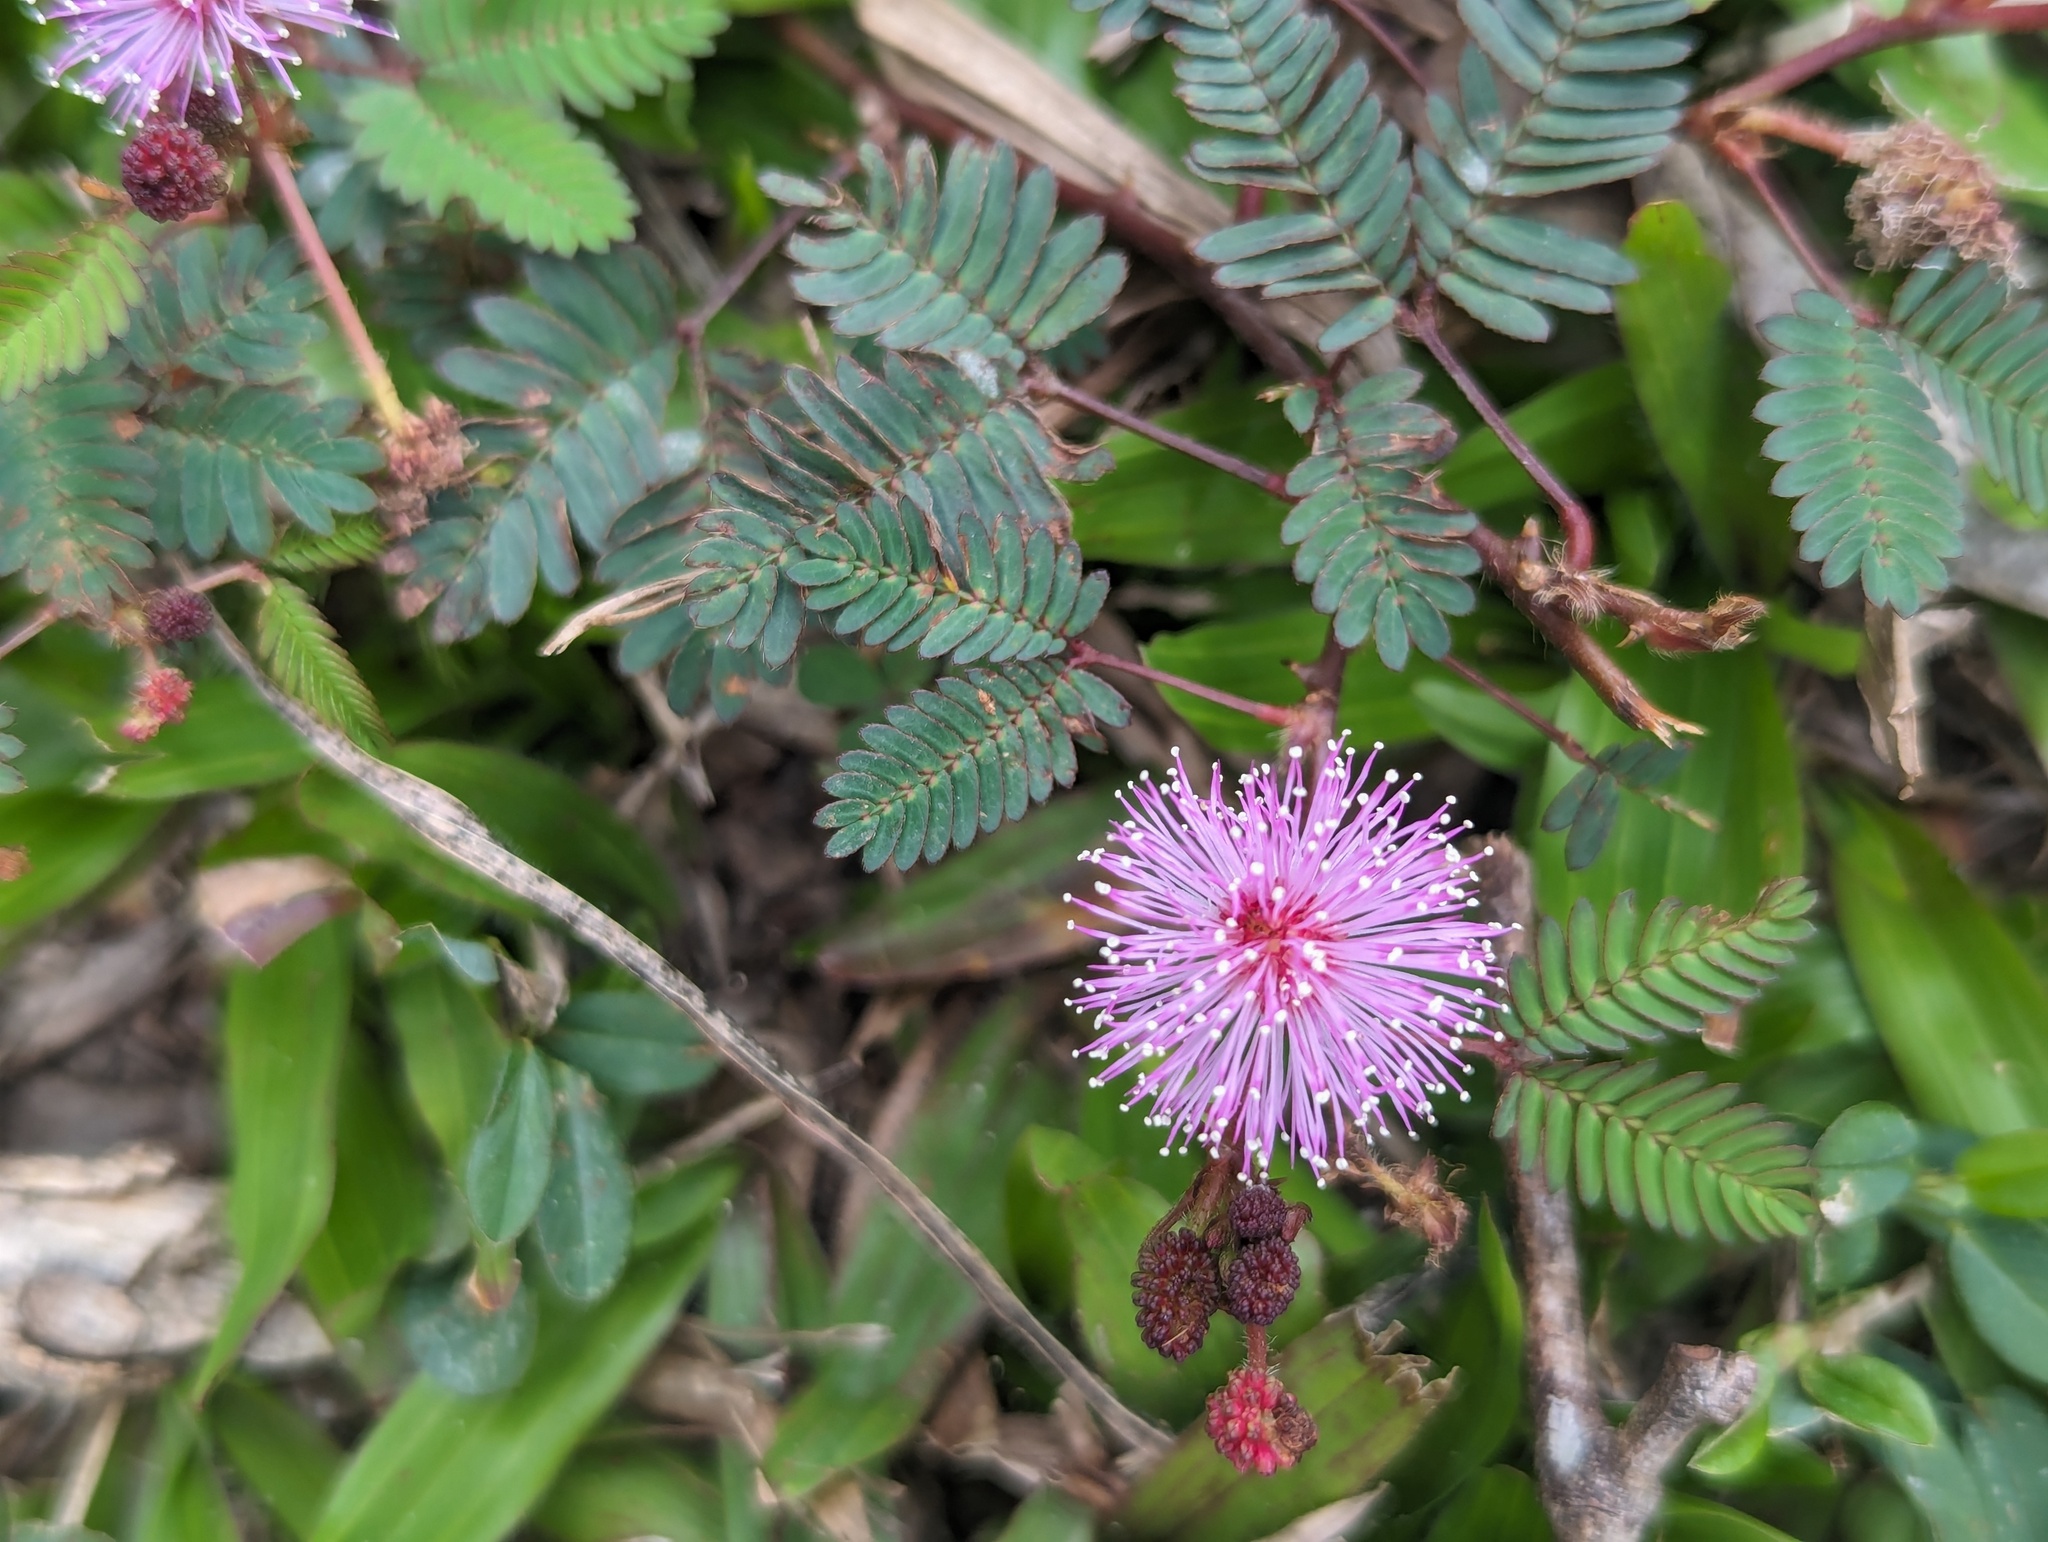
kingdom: Plantae
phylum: Tracheophyta
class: Magnoliopsida
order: Fabales
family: Fabaceae
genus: Mimosa
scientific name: Mimosa pudica
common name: Sensitive plant
